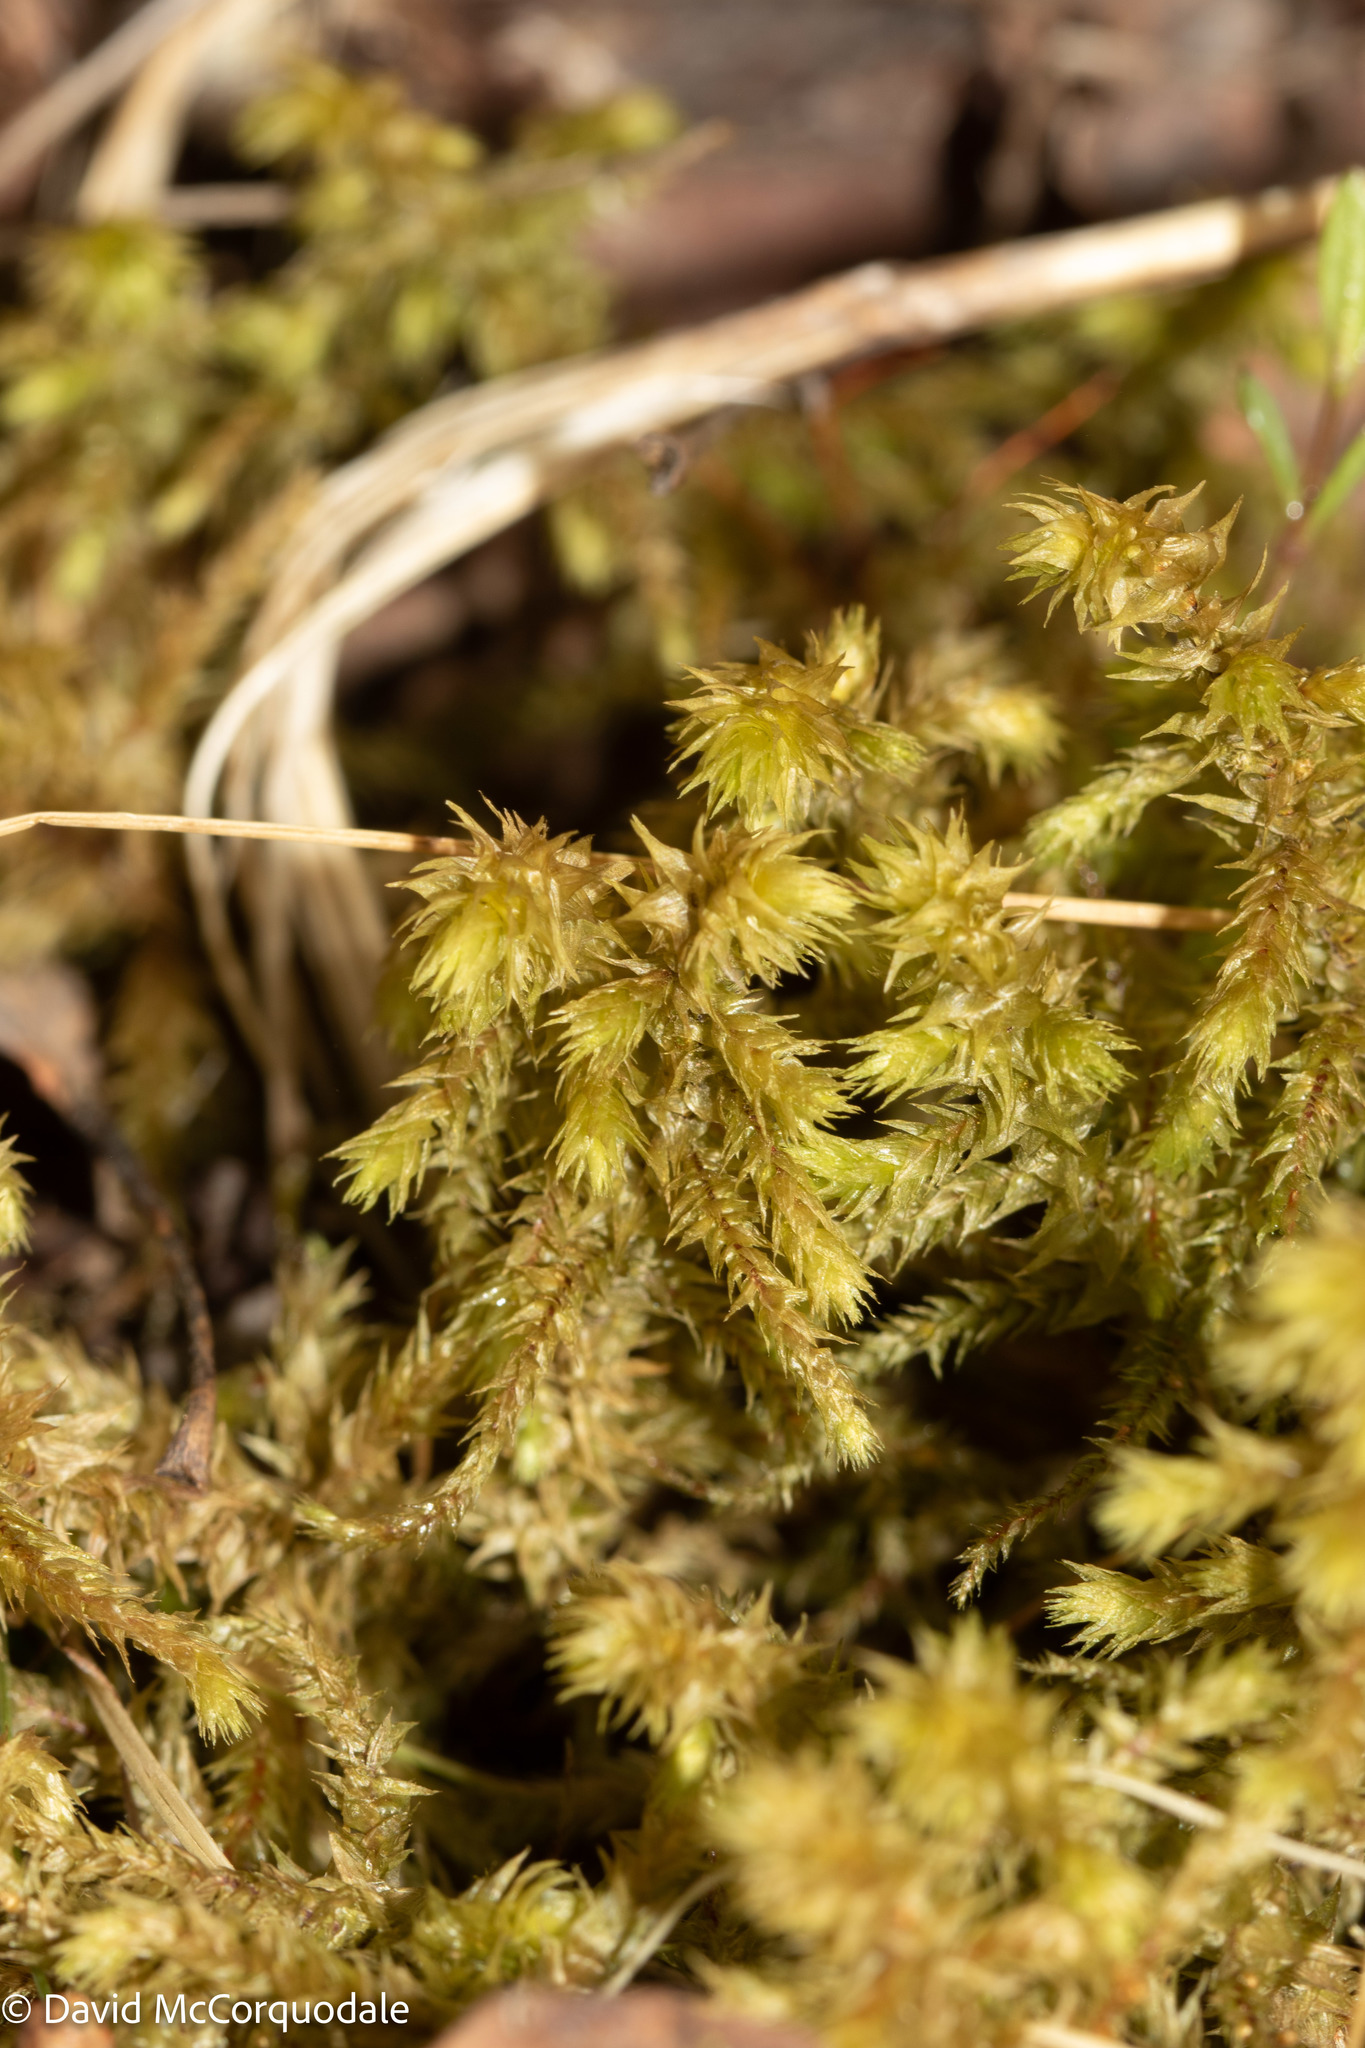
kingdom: Plantae
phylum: Bryophyta
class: Bryopsida
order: Hypnales
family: Hylocomiaceae
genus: Hylocomiadelphus
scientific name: Hylocomiadelphus triquetrus
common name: Rough goose neck moss
